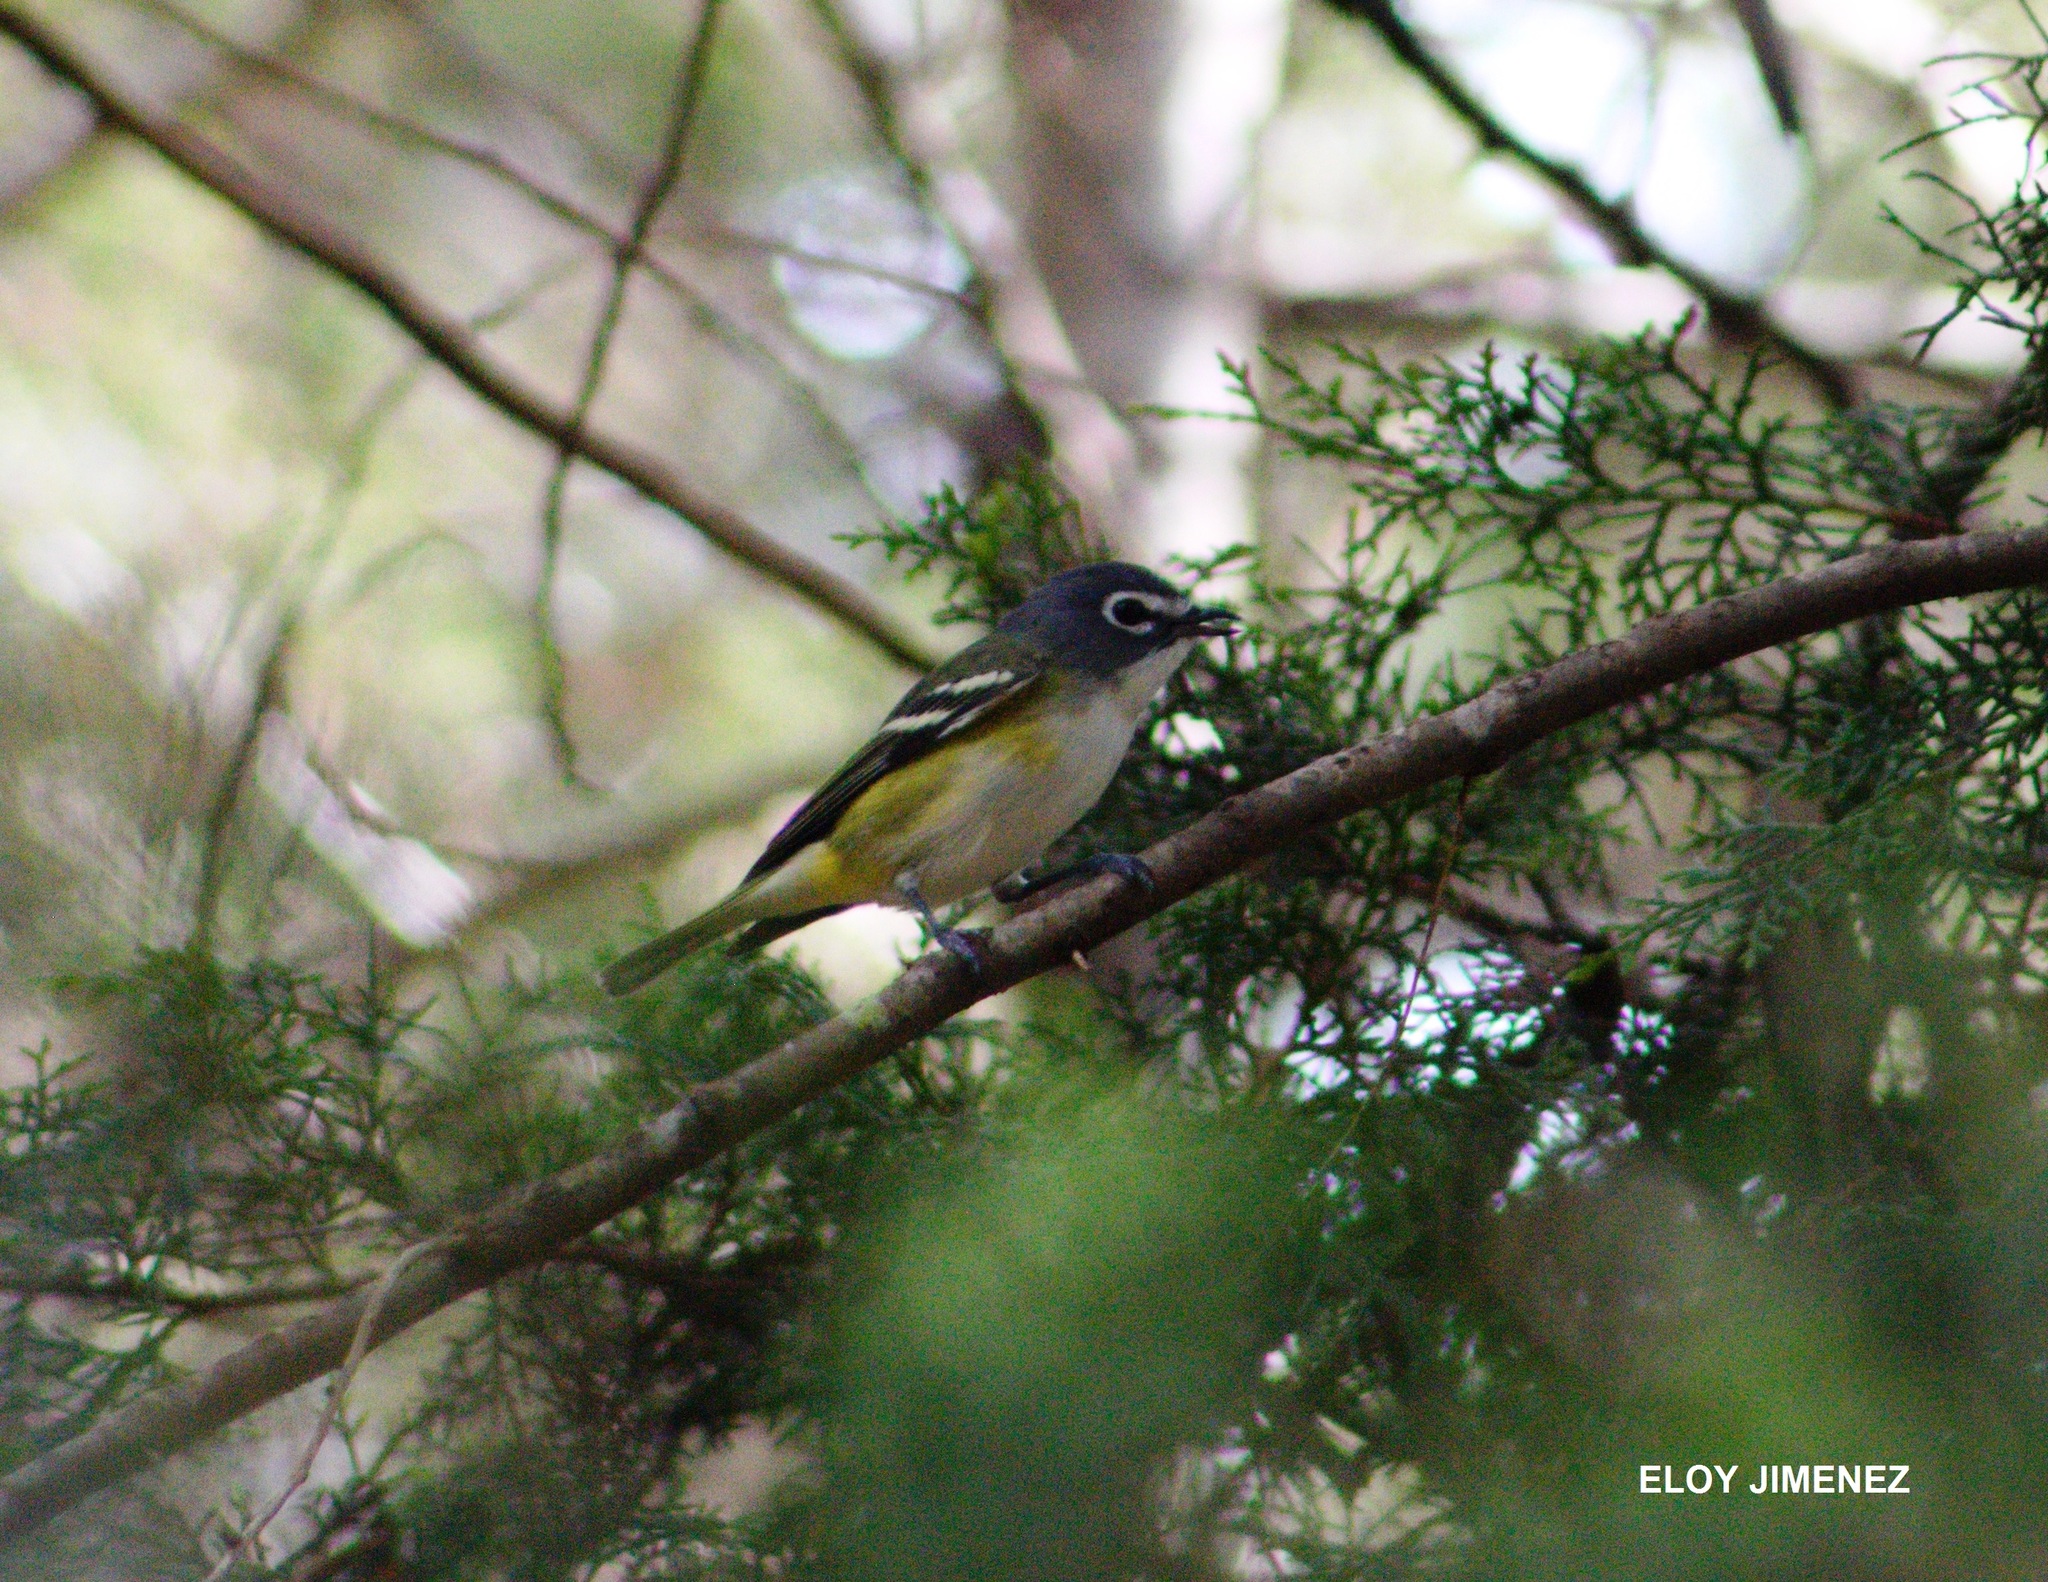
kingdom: Animalia
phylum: Chordata
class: Aves
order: Passeriformes
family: Vireonidae
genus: Vireo
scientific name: Vireo solitarius
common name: Blue-headed vireo
